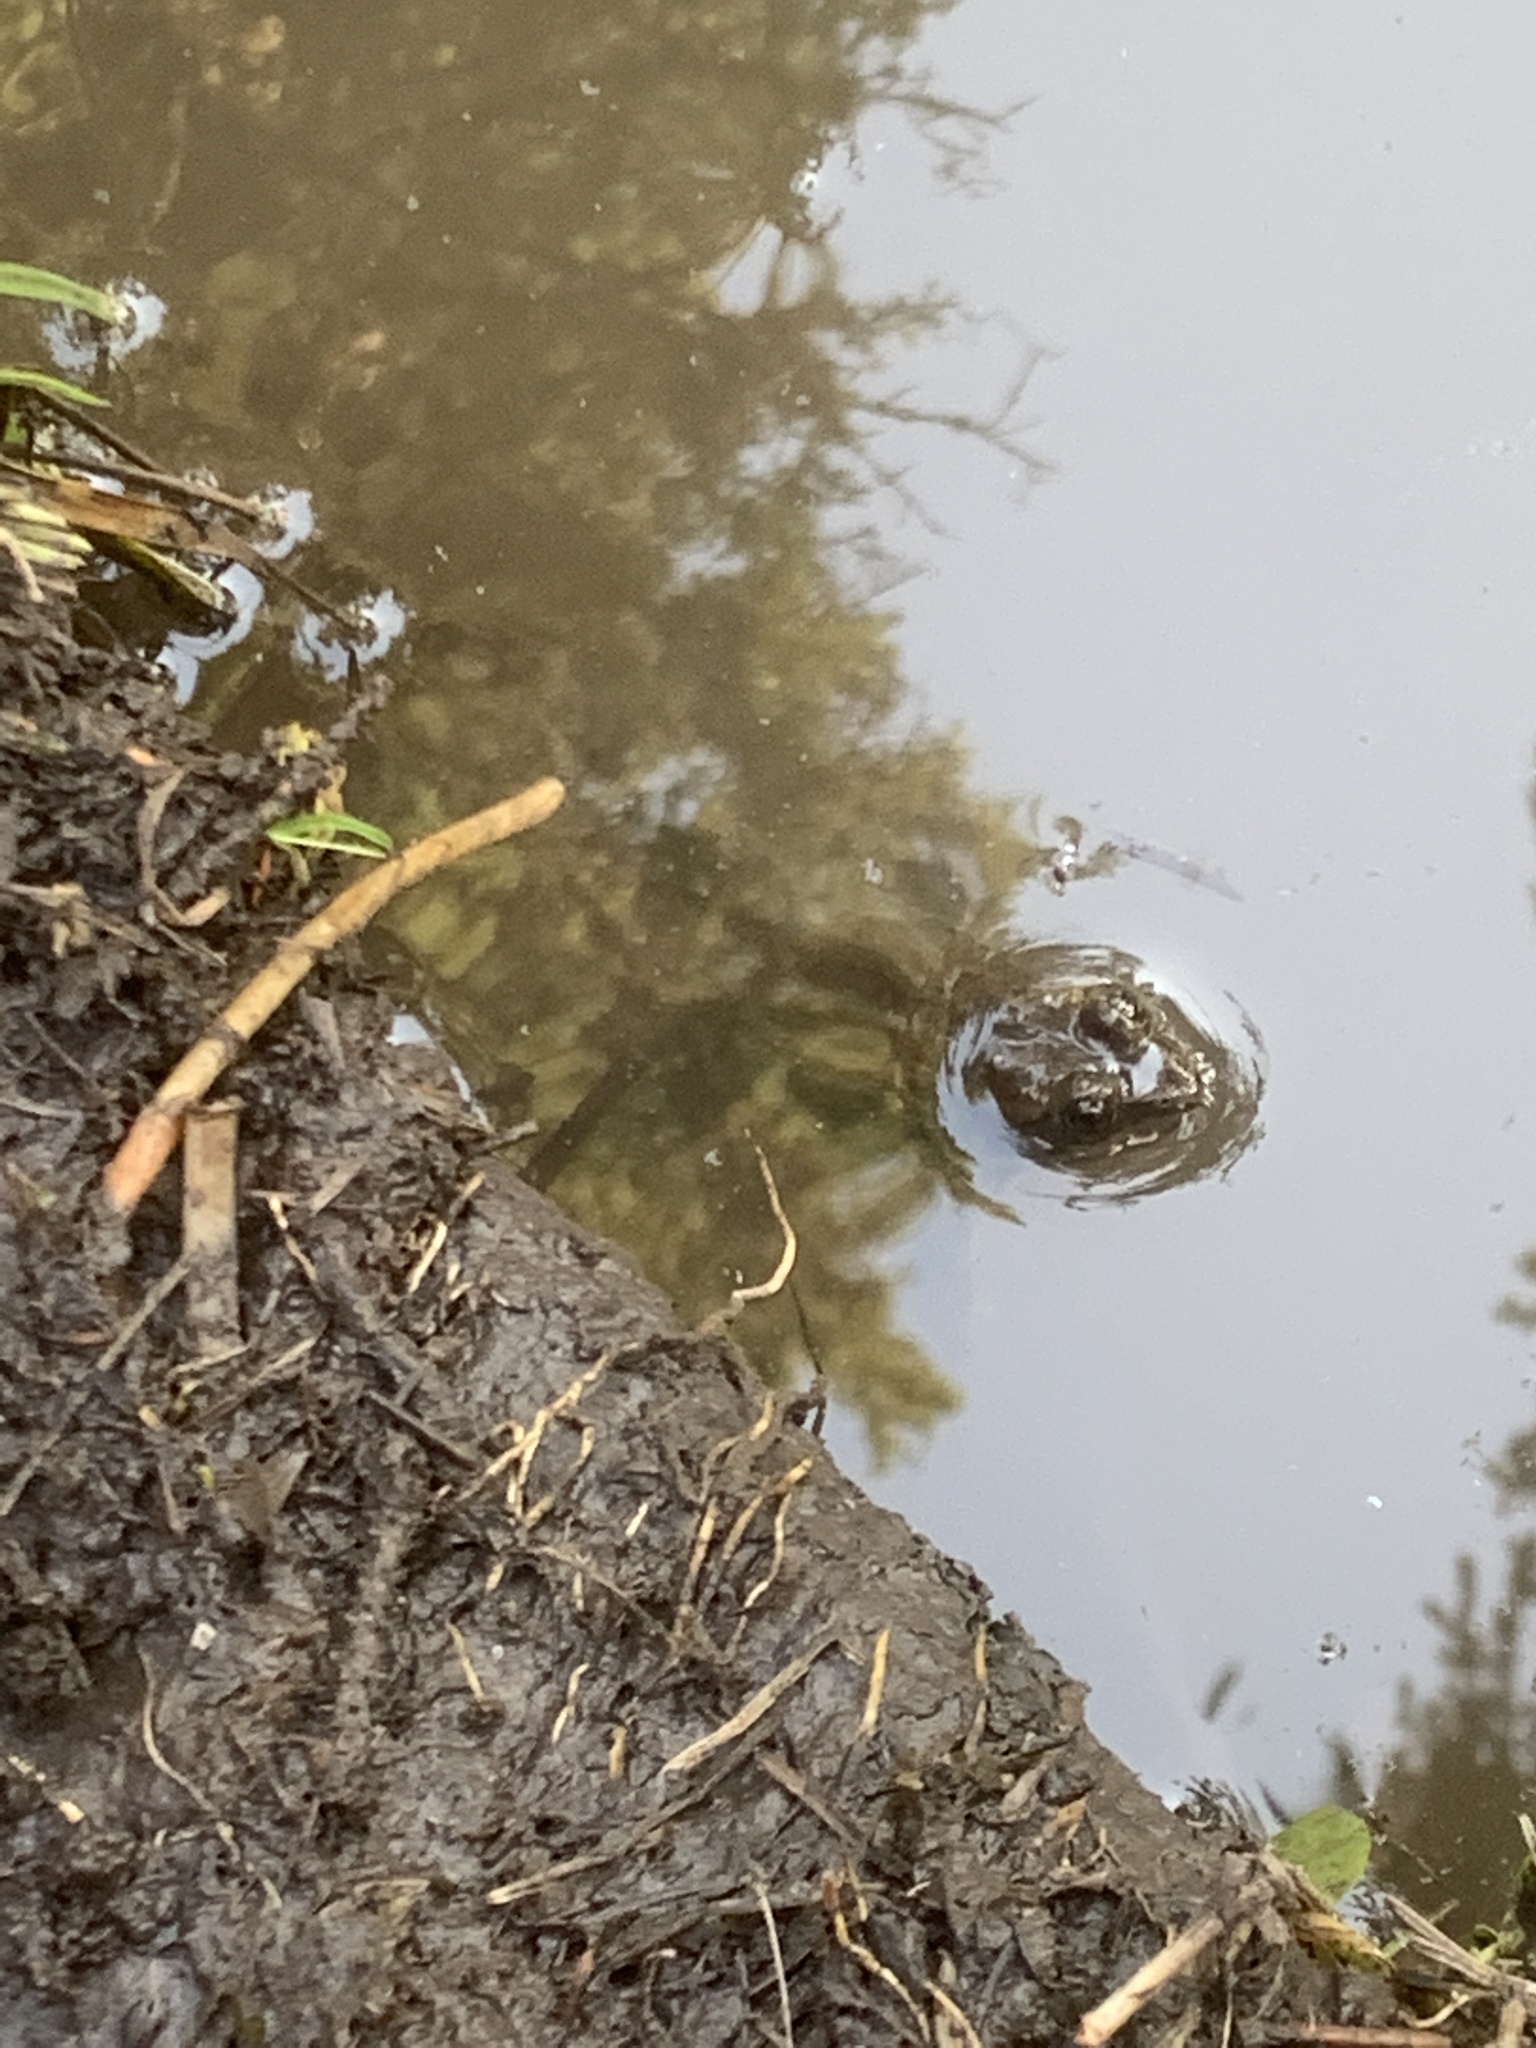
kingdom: Animalia
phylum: Chordata
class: Amphibia
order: Anura
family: Ranidae
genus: Rana
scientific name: Rana luteiventris
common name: Columbia spotted frog
